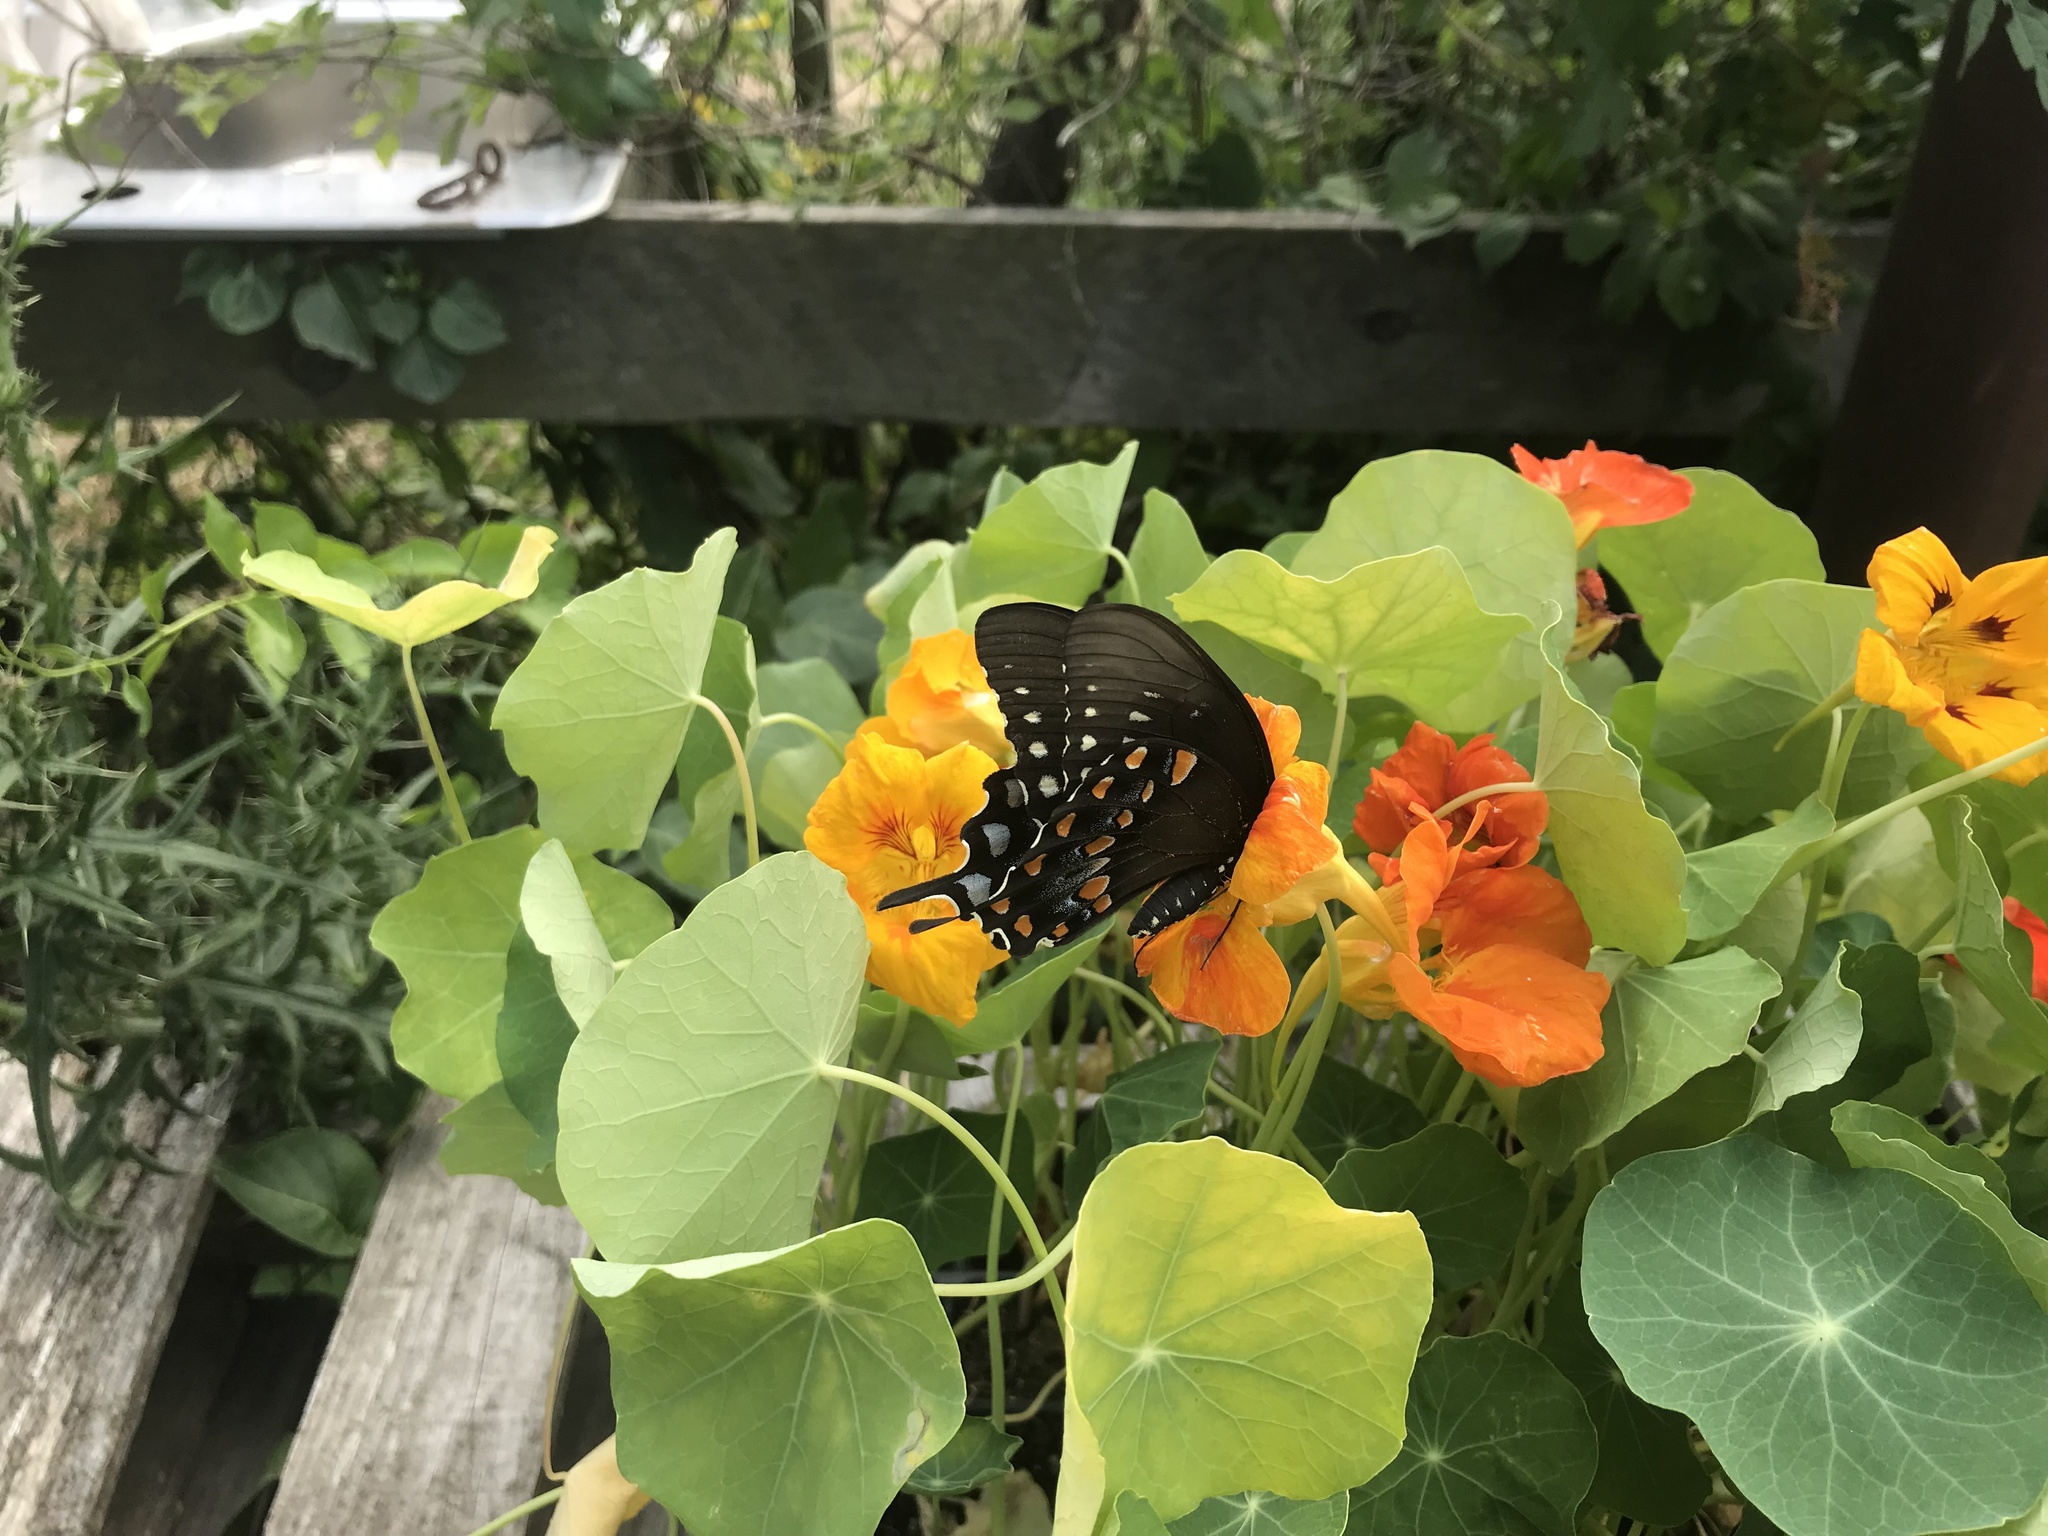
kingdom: Animalia
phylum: Arthropoda
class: Insecta
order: Lepidoptera
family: Papilionidae
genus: Papilio
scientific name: Papilio troilus
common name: Spicebush swallowtail
